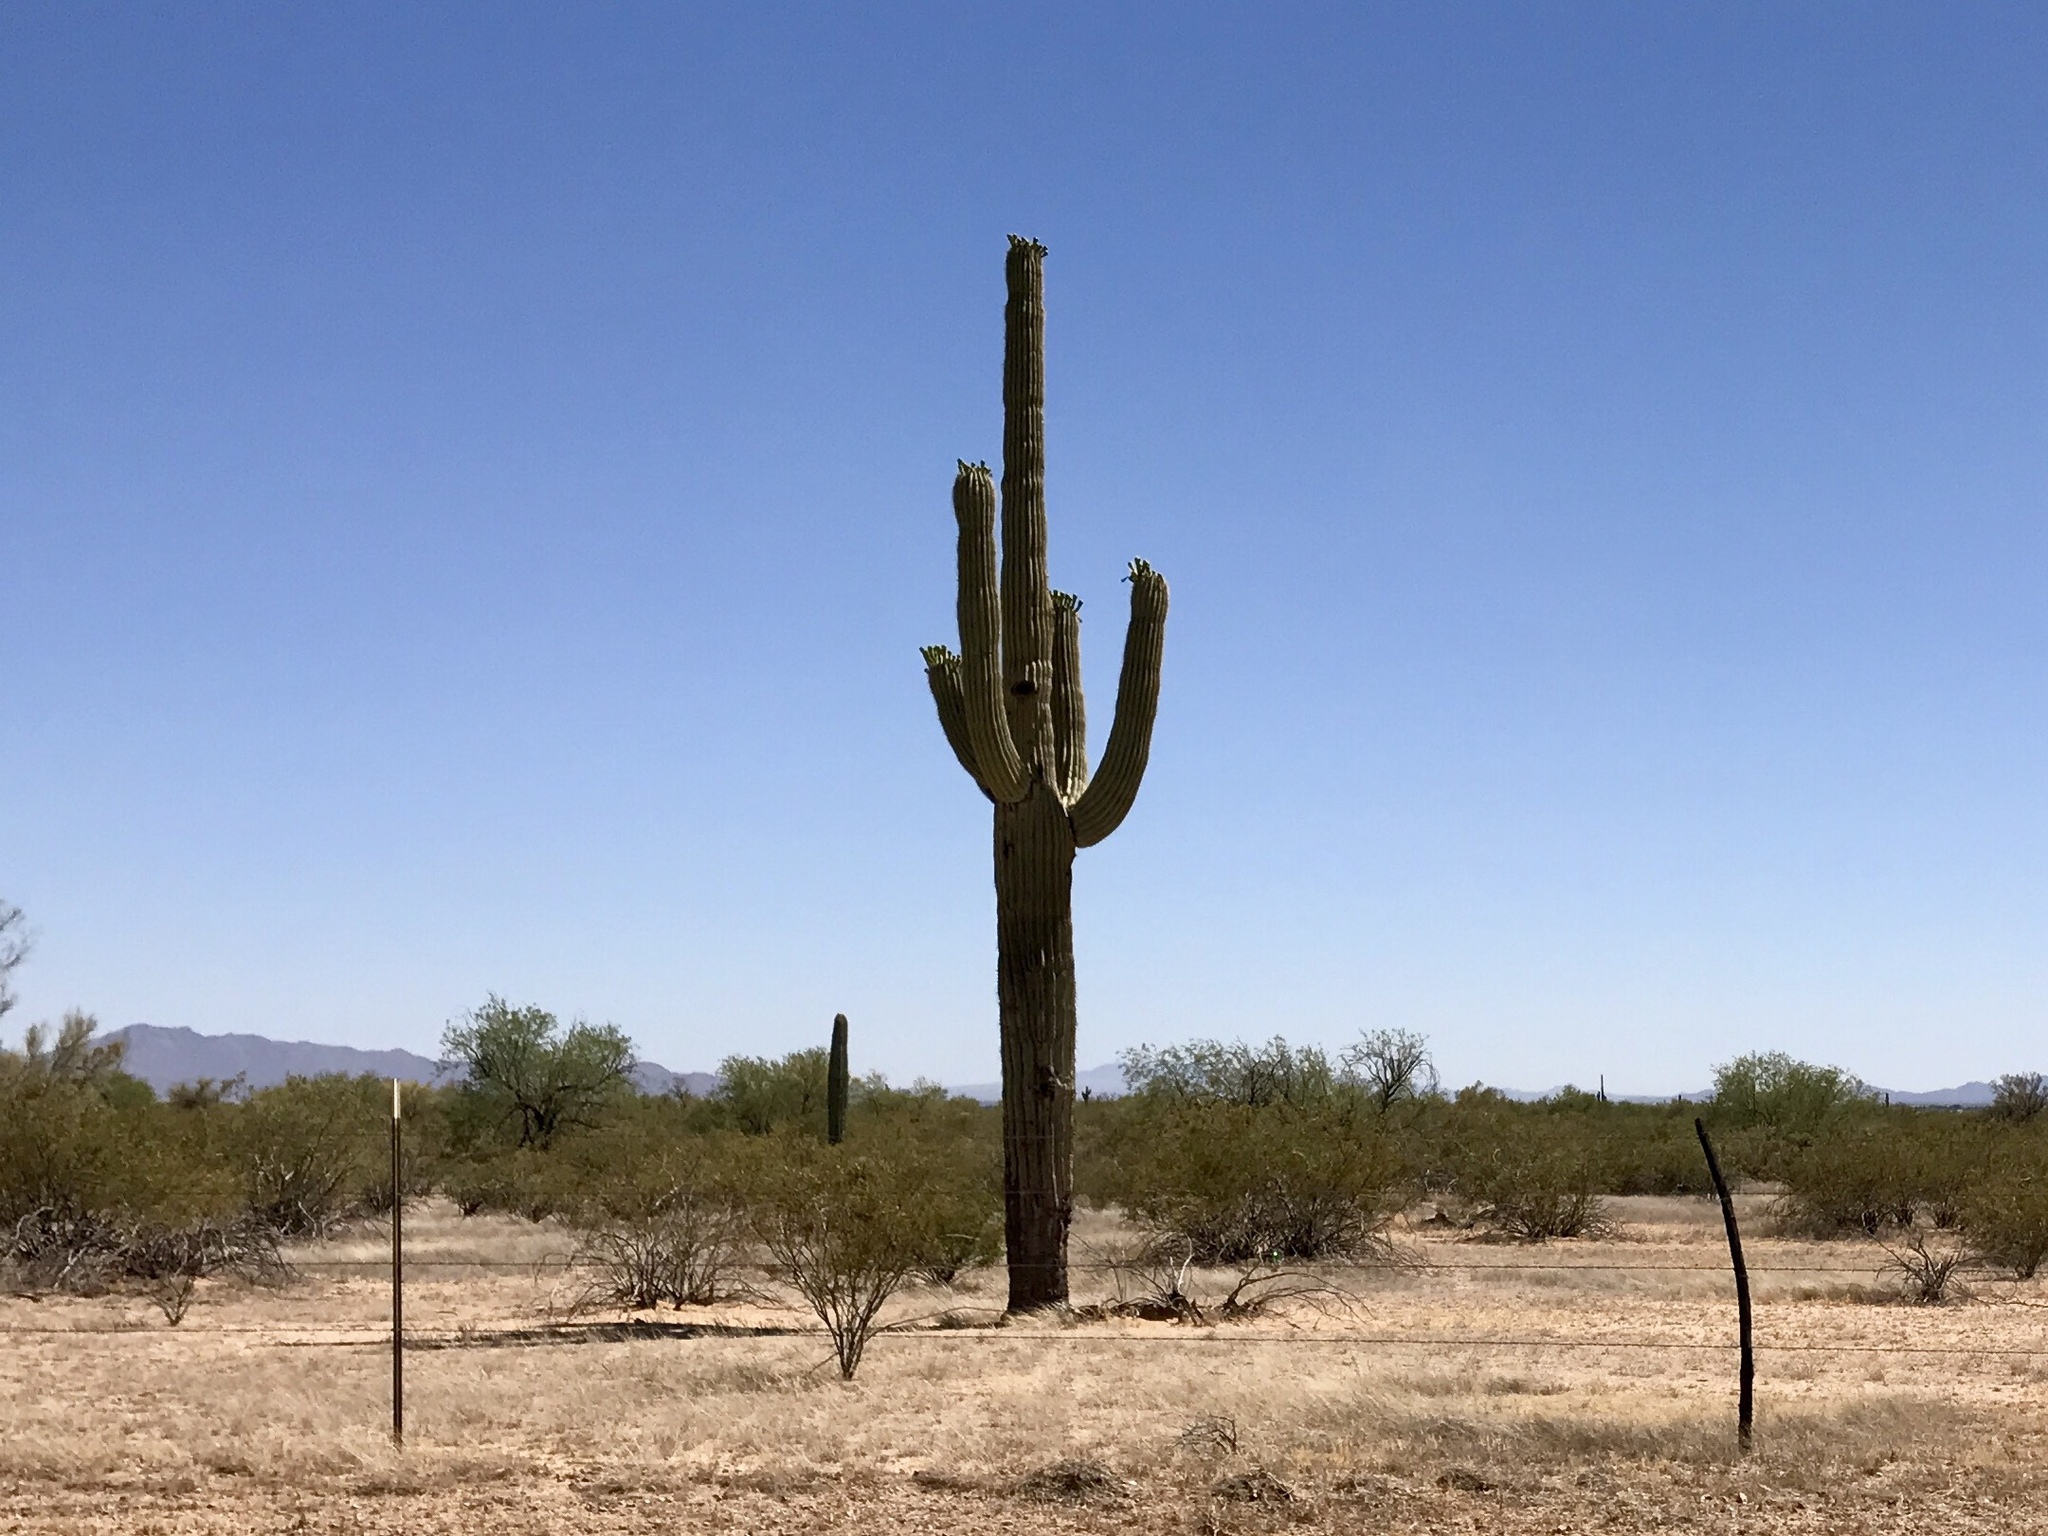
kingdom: Plantae
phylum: Tracheophyta
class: Magnoliopsida
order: Caryophyllales
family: Cactaceae
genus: Carnegiea
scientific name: Carnegiea gigantea
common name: Saguaro
